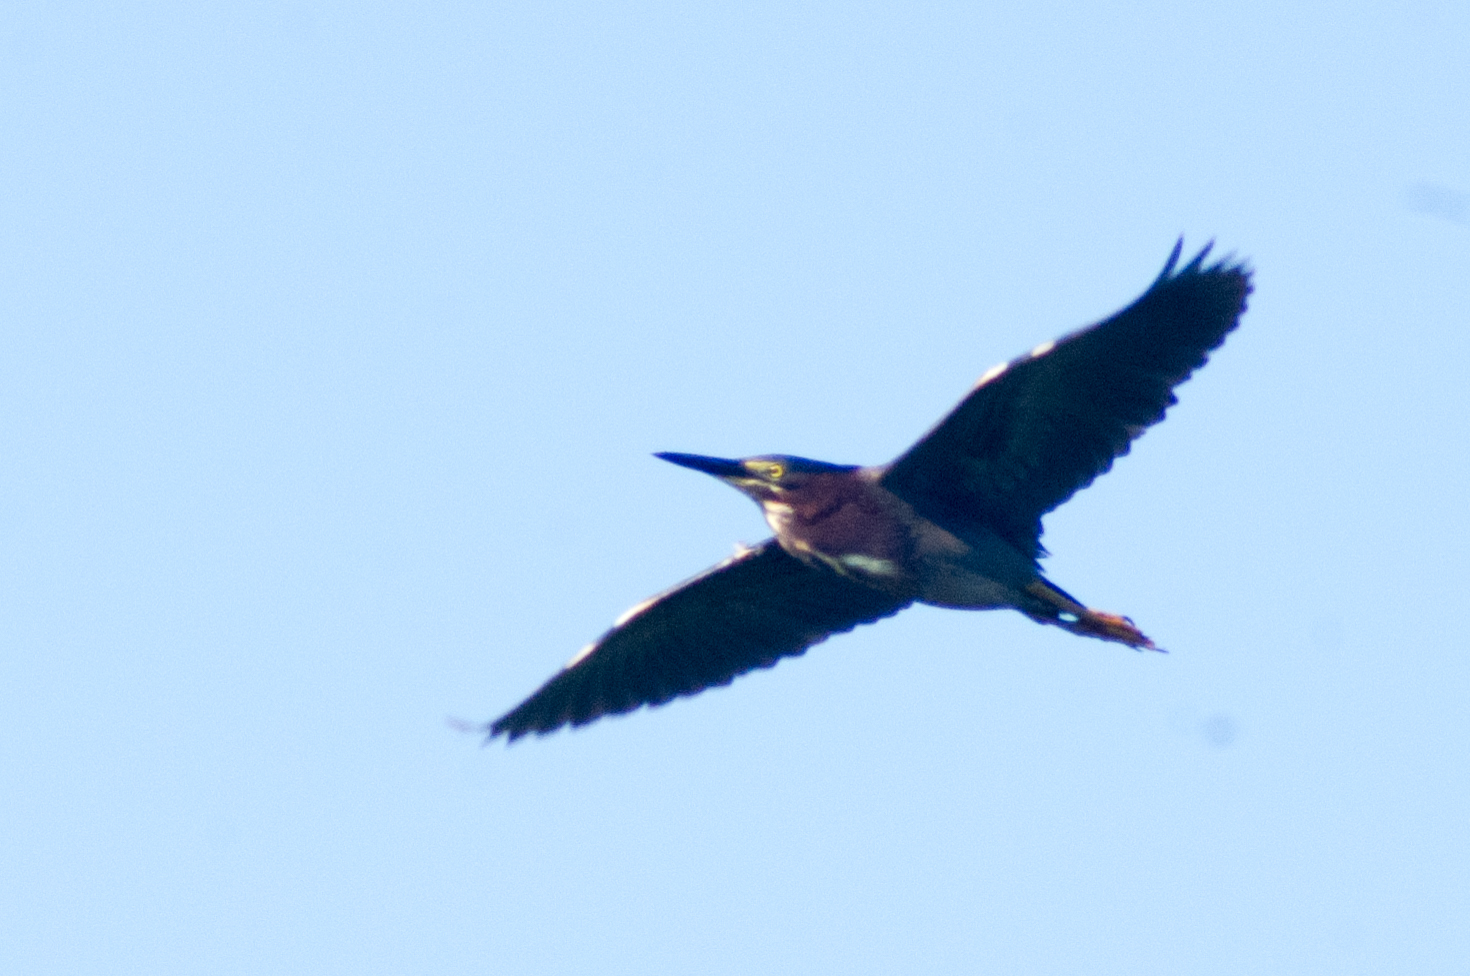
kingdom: Animalia
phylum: Chordata
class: Aves
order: Pelecaniformes
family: Ardeidae
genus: Butorides
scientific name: Butorides virescens
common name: Green heron
